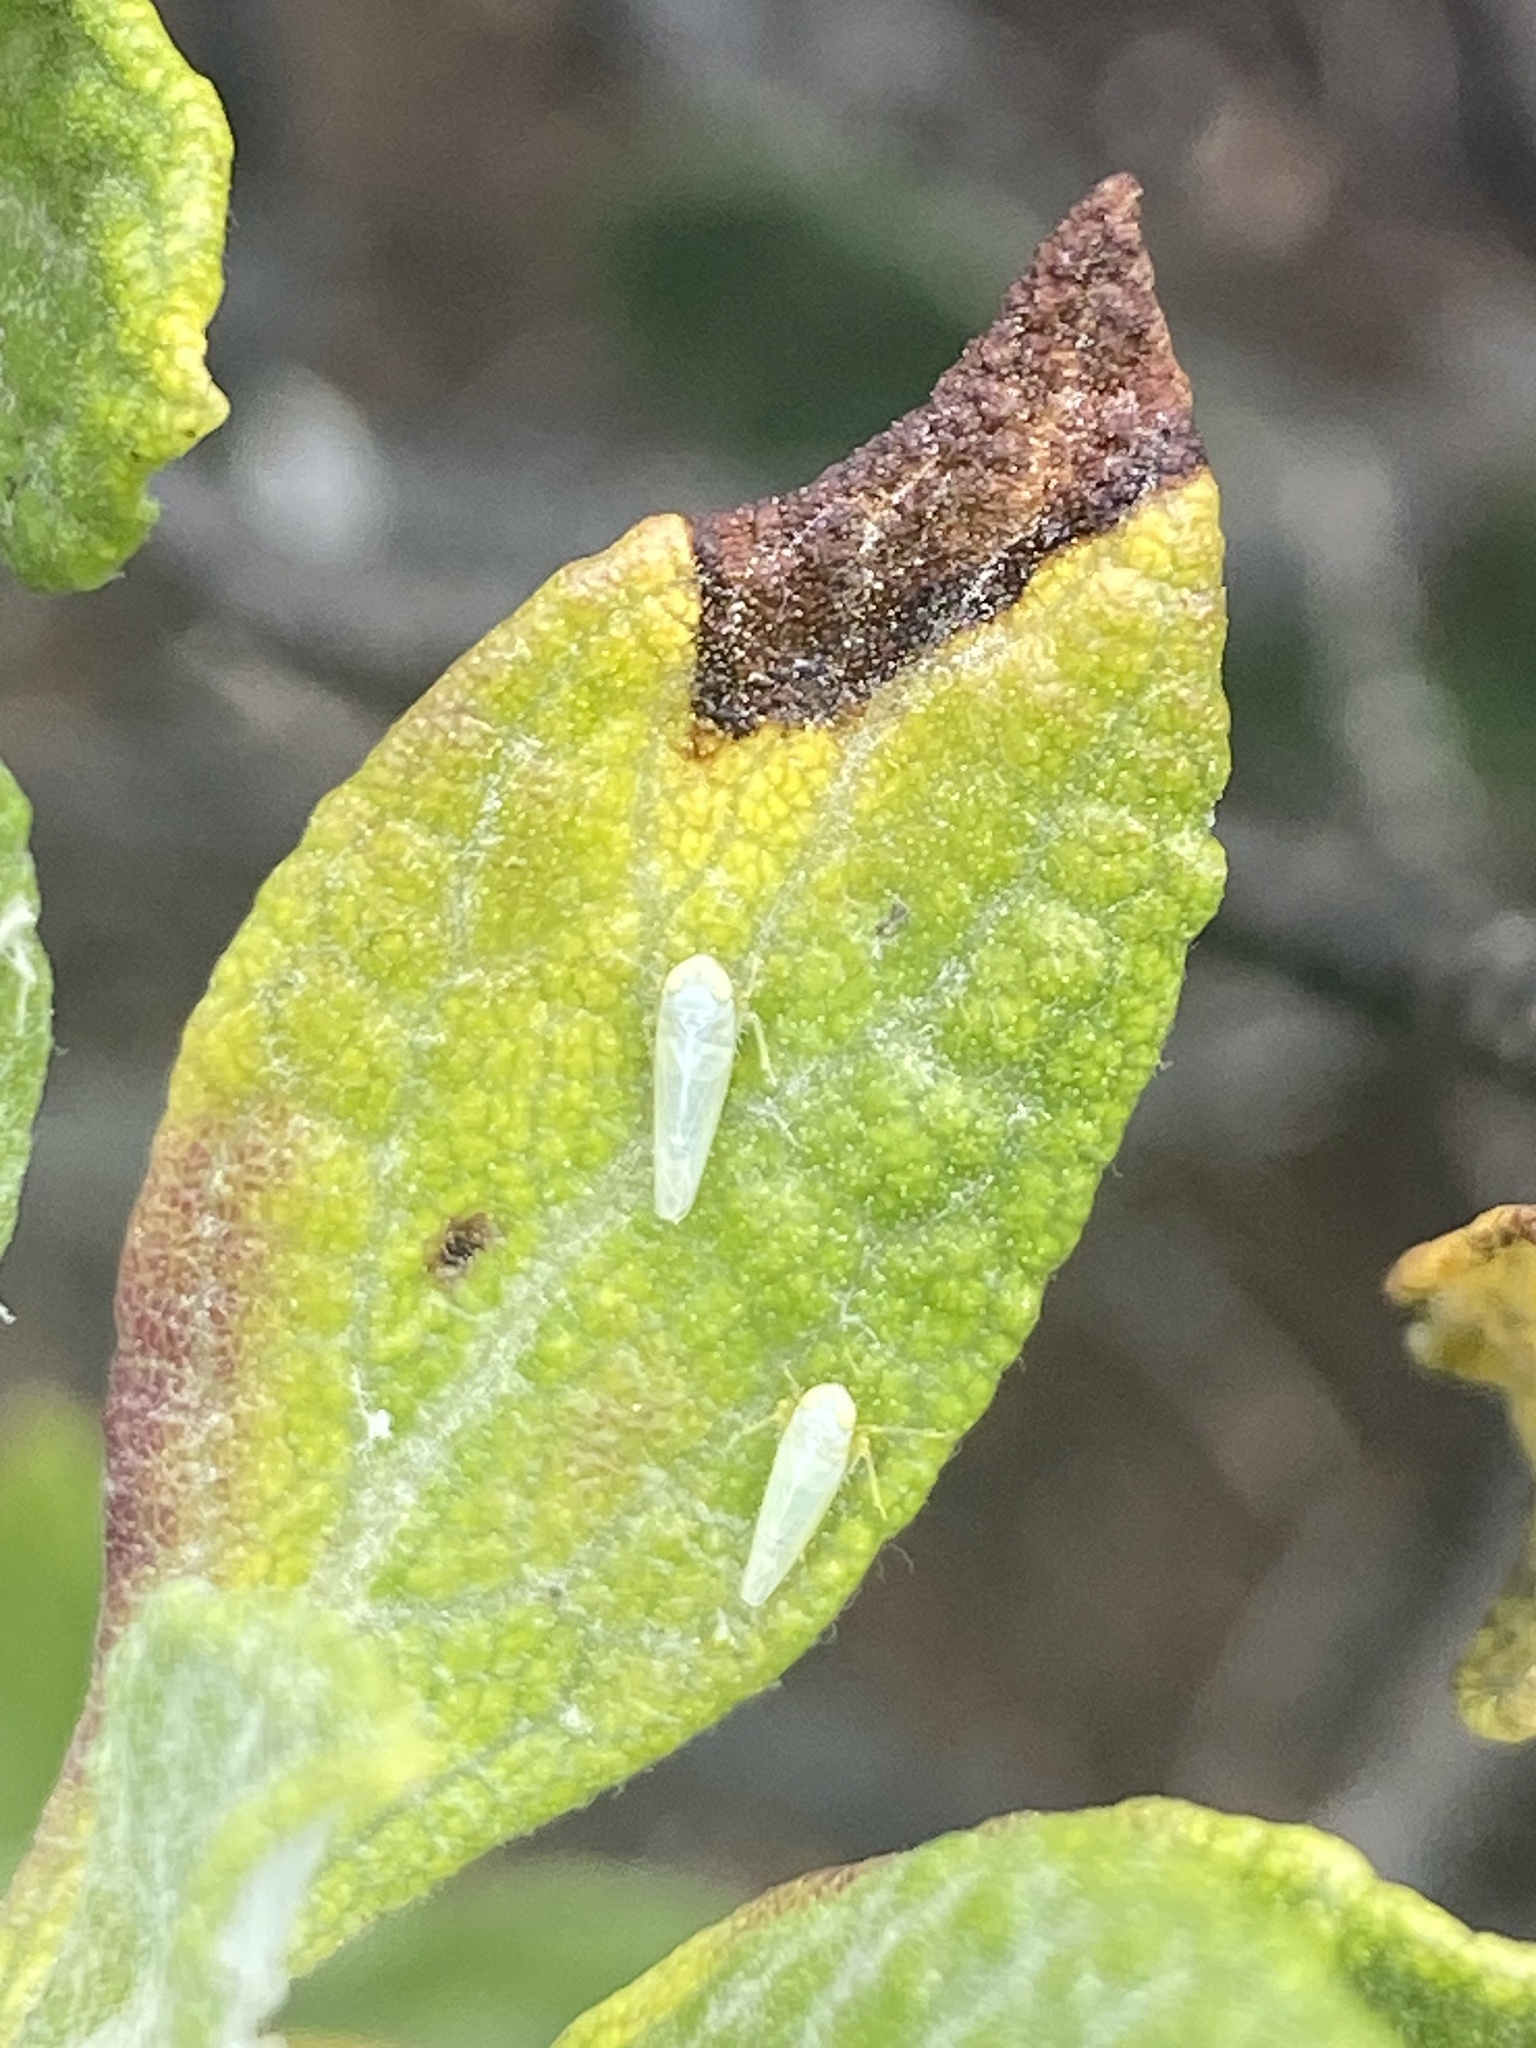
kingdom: Animalia
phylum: Arthropoda
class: Insecta
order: Hemiptera
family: Cicadellidae
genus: Sanctahelenia
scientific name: Sanctahelenia decellei
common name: Gumwood leafhopper
